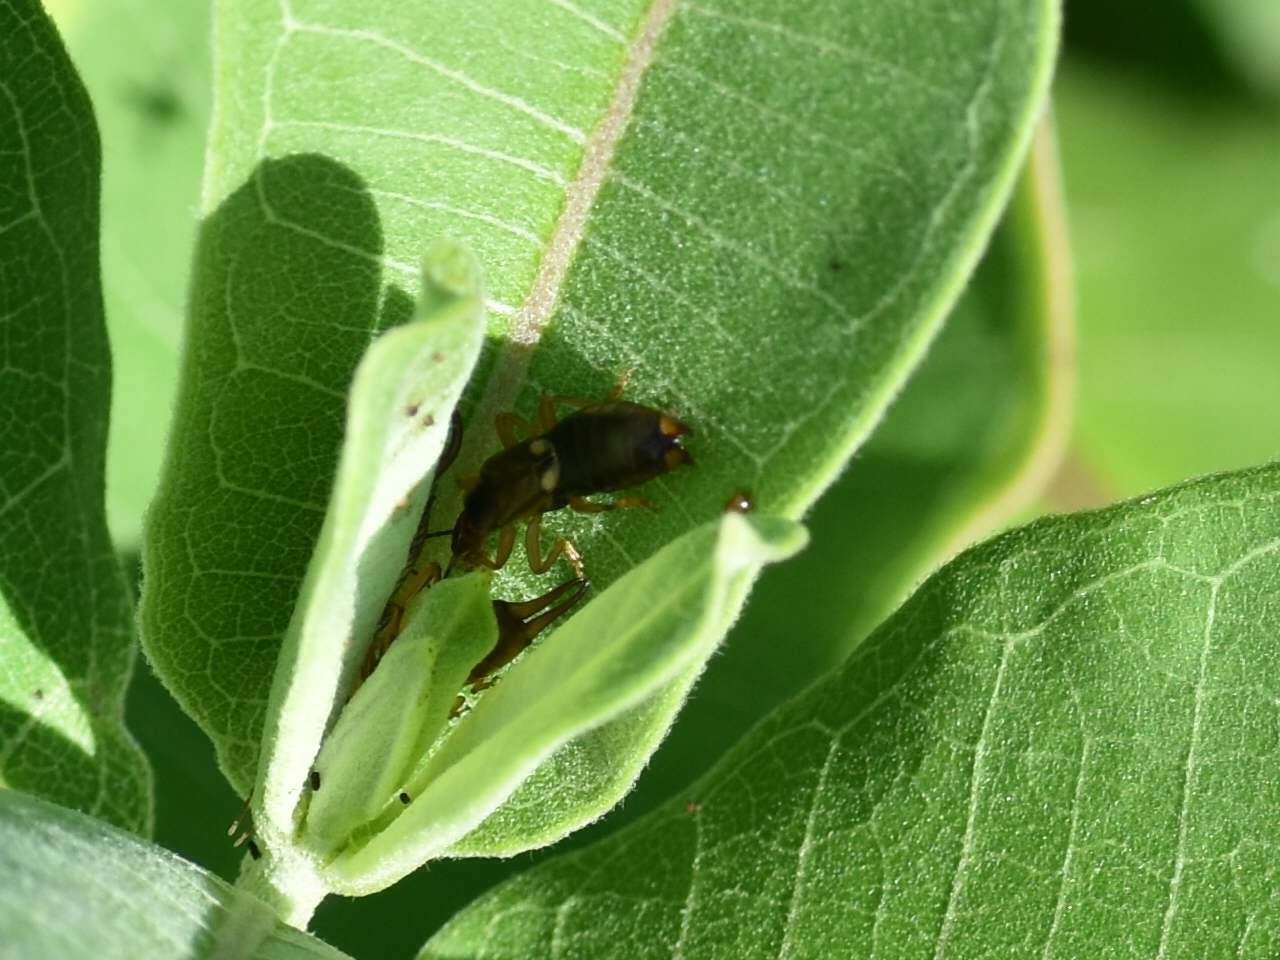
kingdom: Animalia
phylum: Arthropoda
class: Insecta
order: Dermaptera
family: Forficulidae
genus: Forficula
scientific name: Forficula
